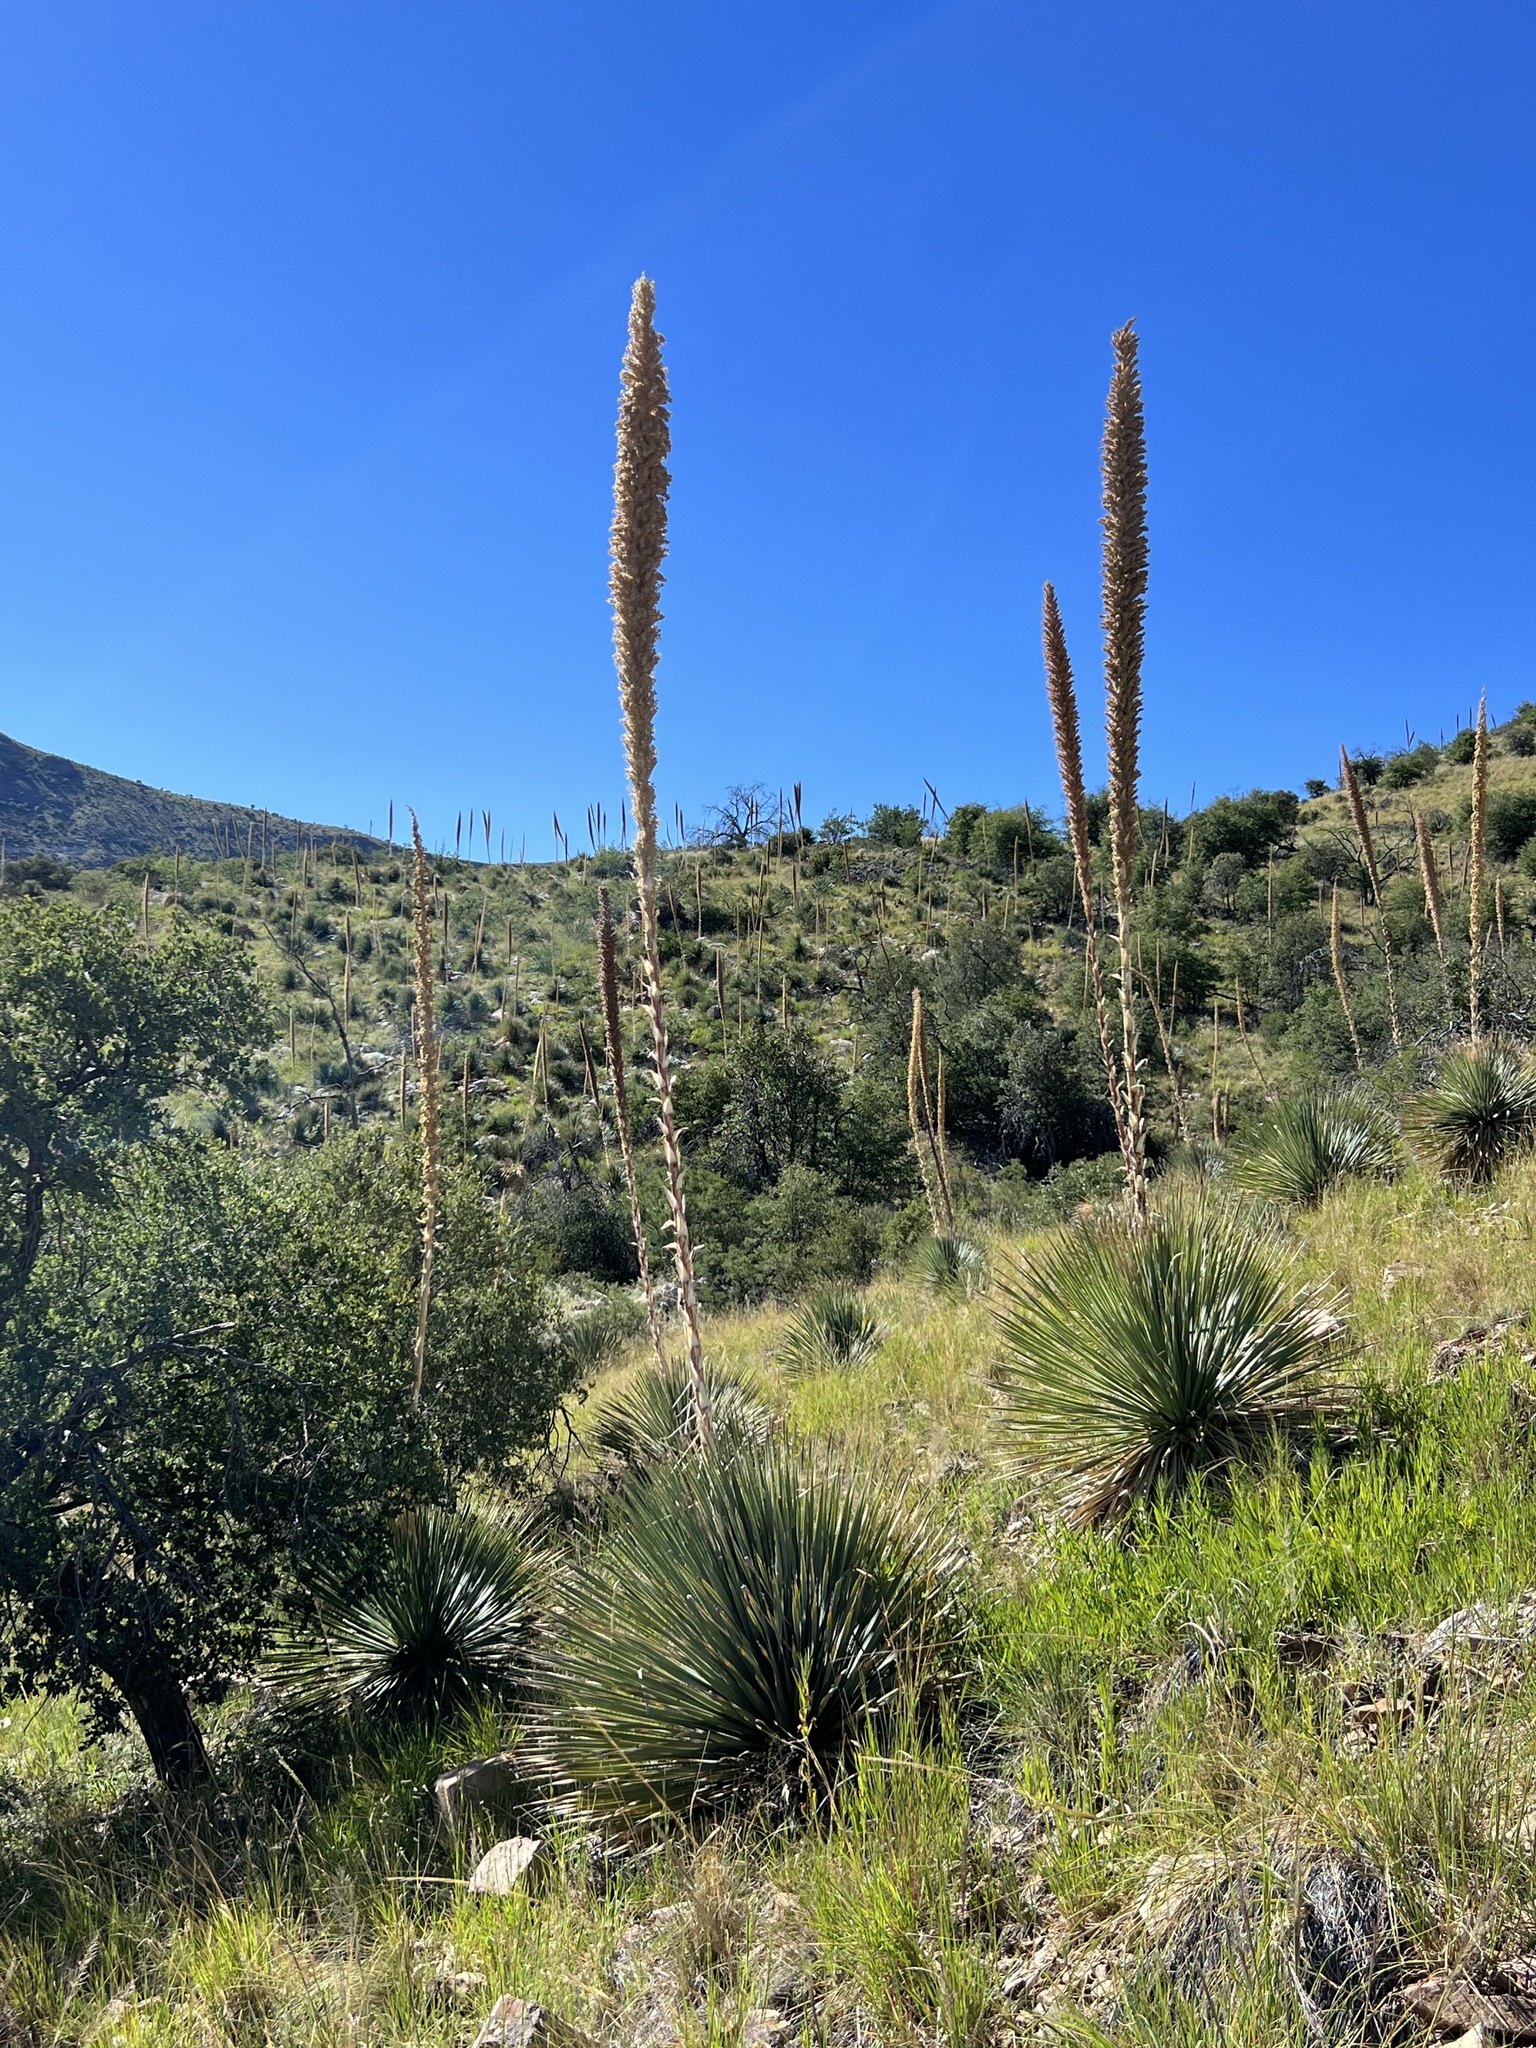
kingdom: Plantae
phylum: Tracheophyta
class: Liliopsida
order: Asparagales
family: Asparagaceae
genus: Dasylirion
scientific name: Dasylirion wheeleri
